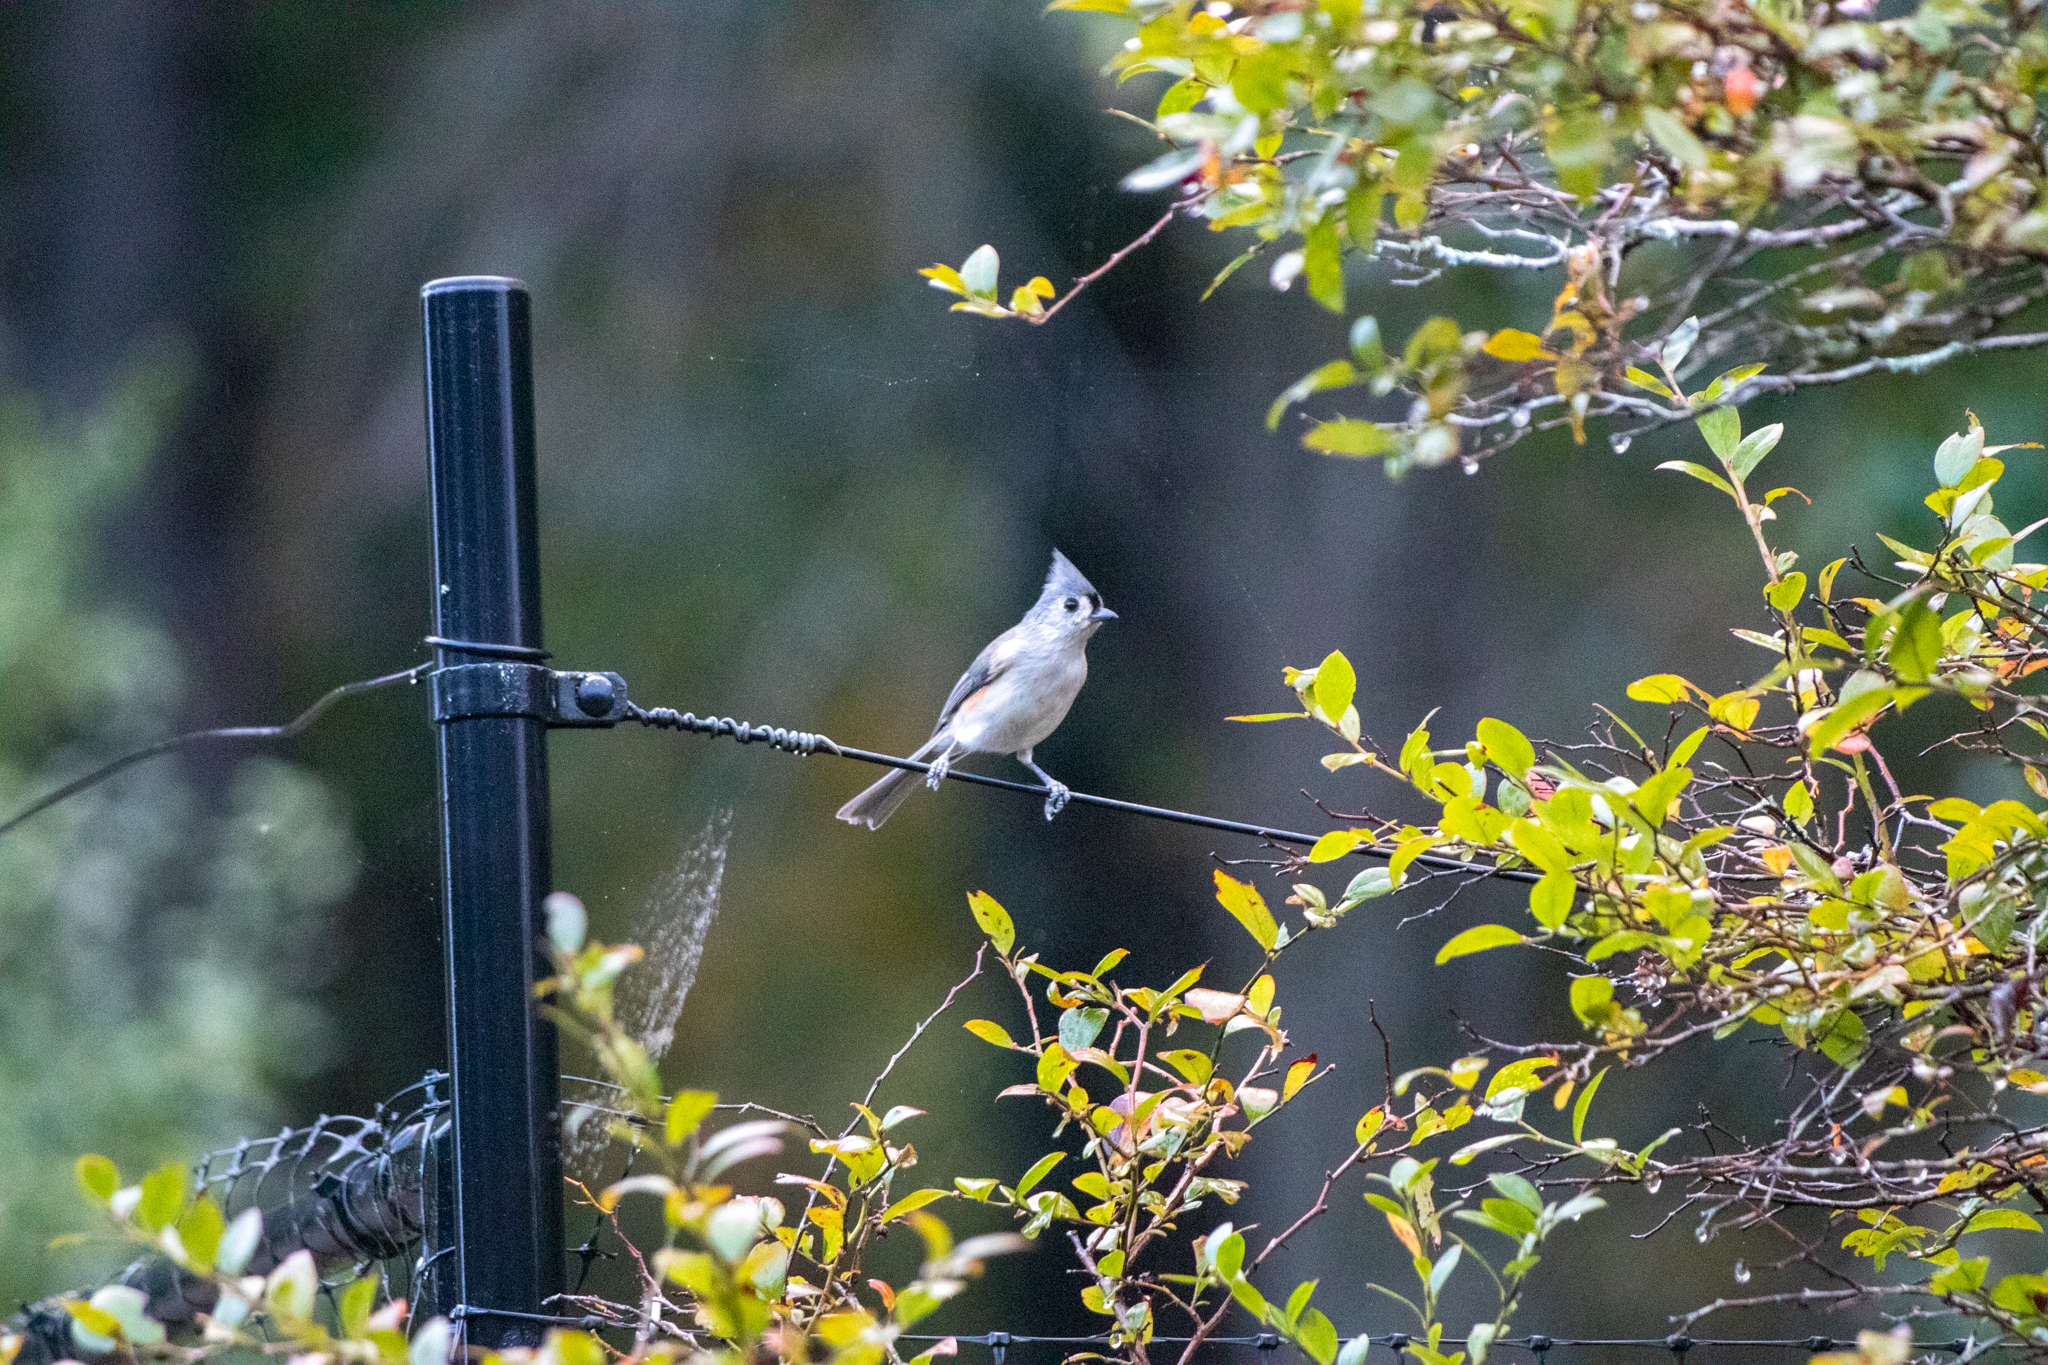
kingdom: Animalia
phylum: Chordata
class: Aves
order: Passeriformes
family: Paridae
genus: Baeolophus
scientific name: Baeolophus bicolor
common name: Tufted titmouse
